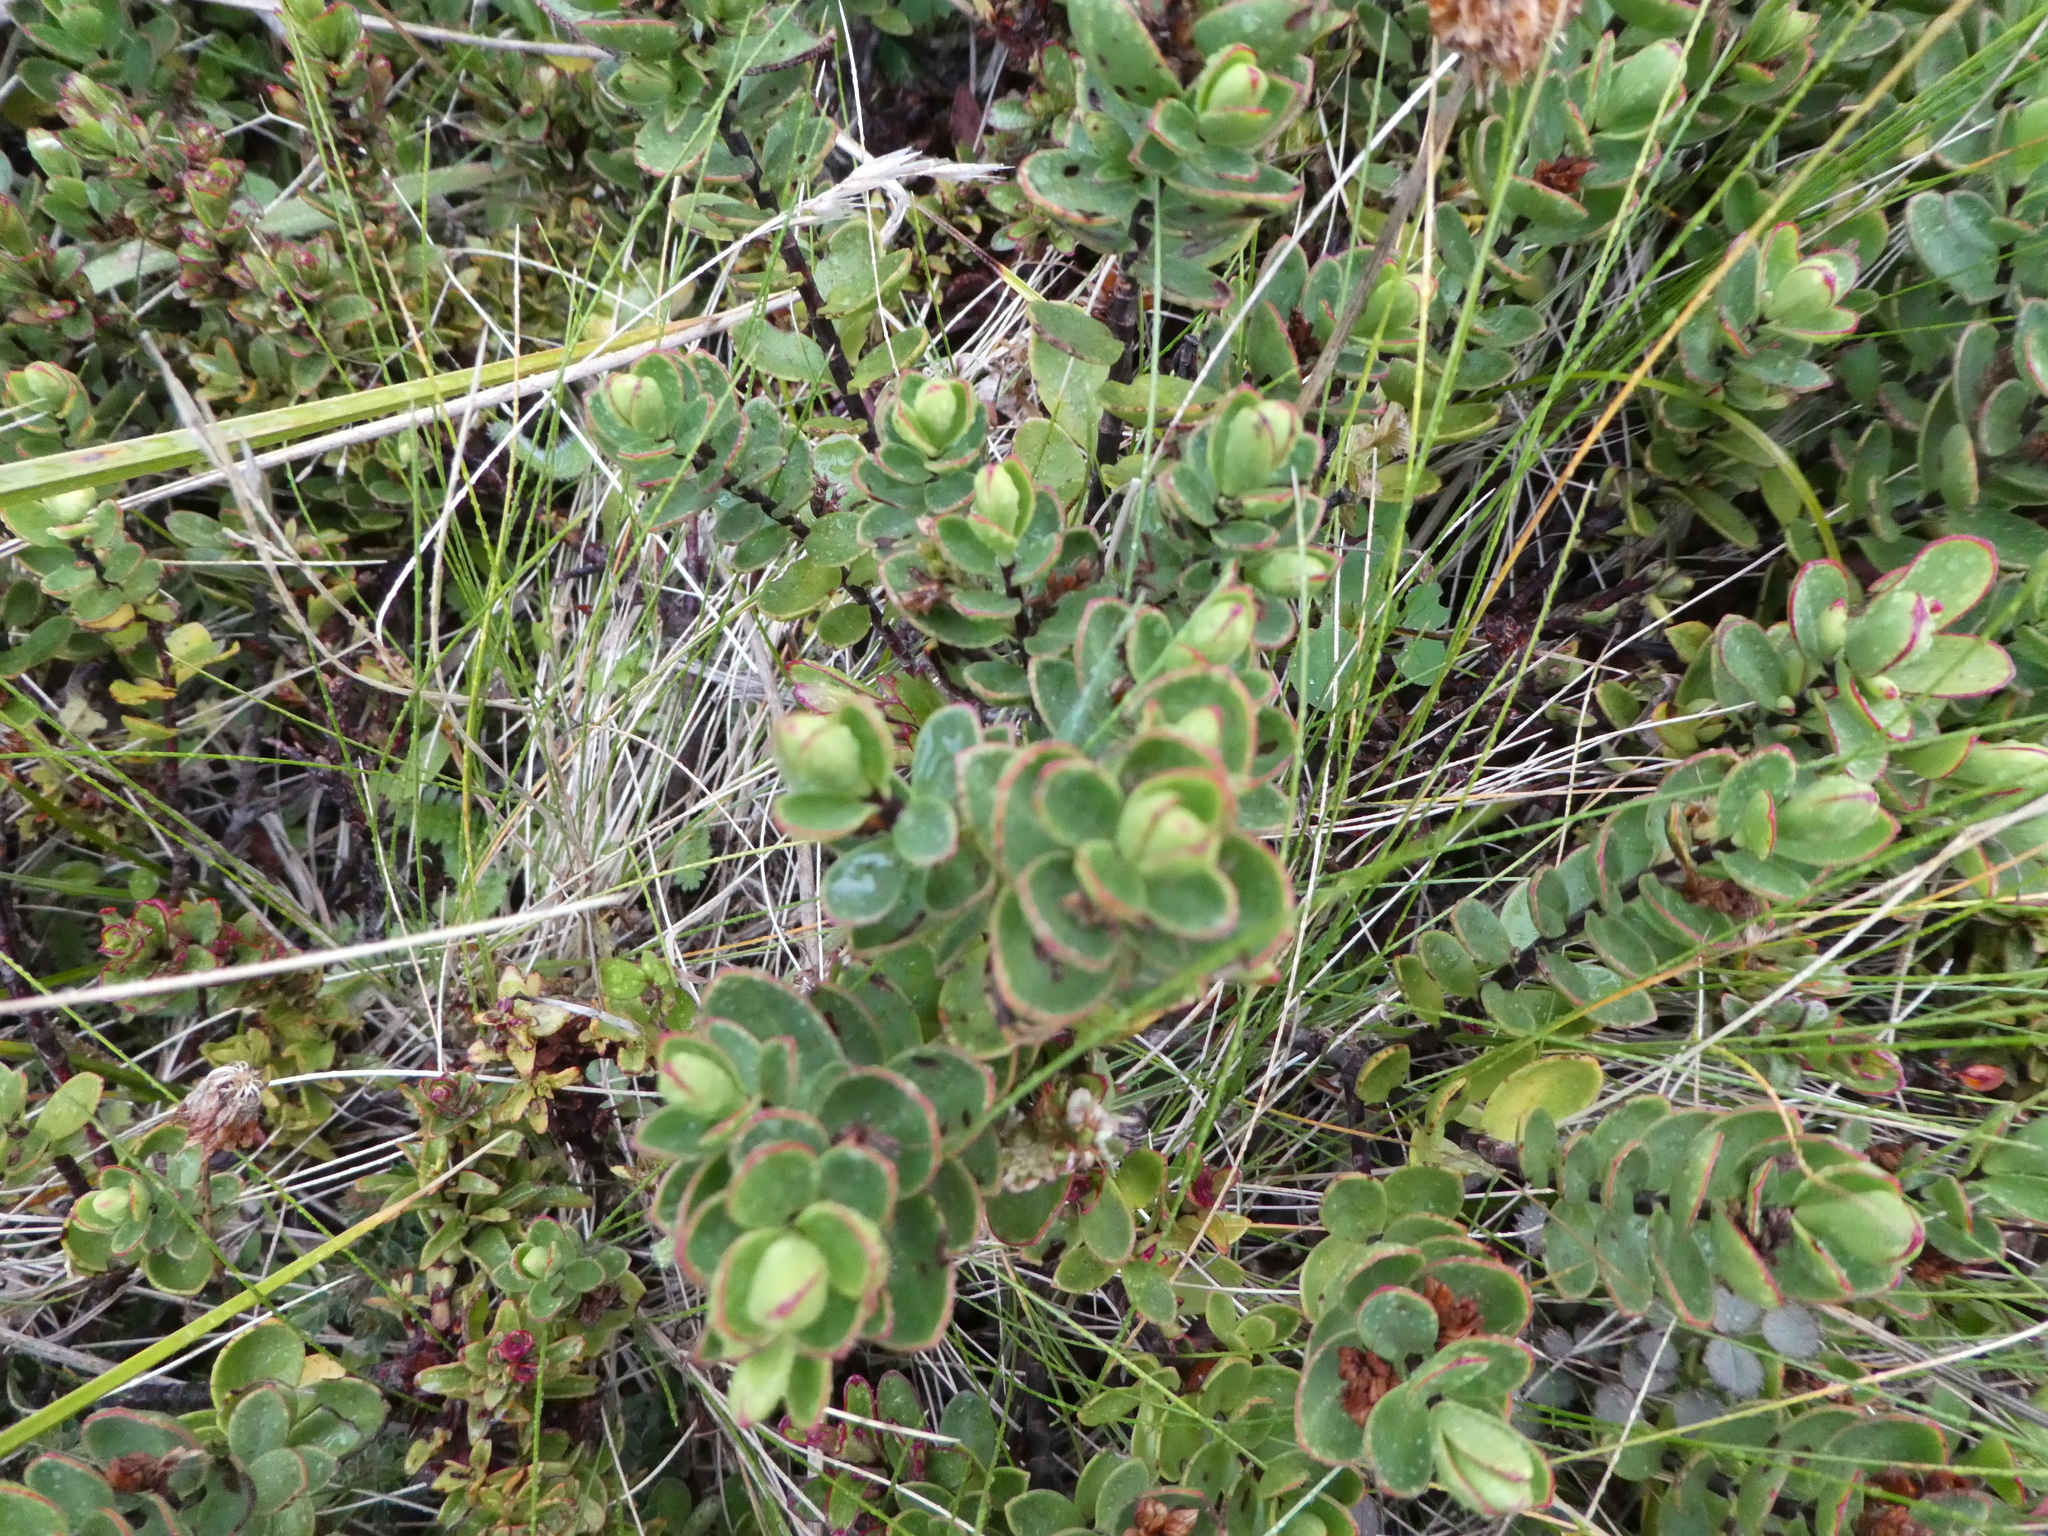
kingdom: Plantae
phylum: Tracheophyta
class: Magnoliopsida
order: Lamiales
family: Plantaginaceae
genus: Veronica
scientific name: Veronica pinguifolia
